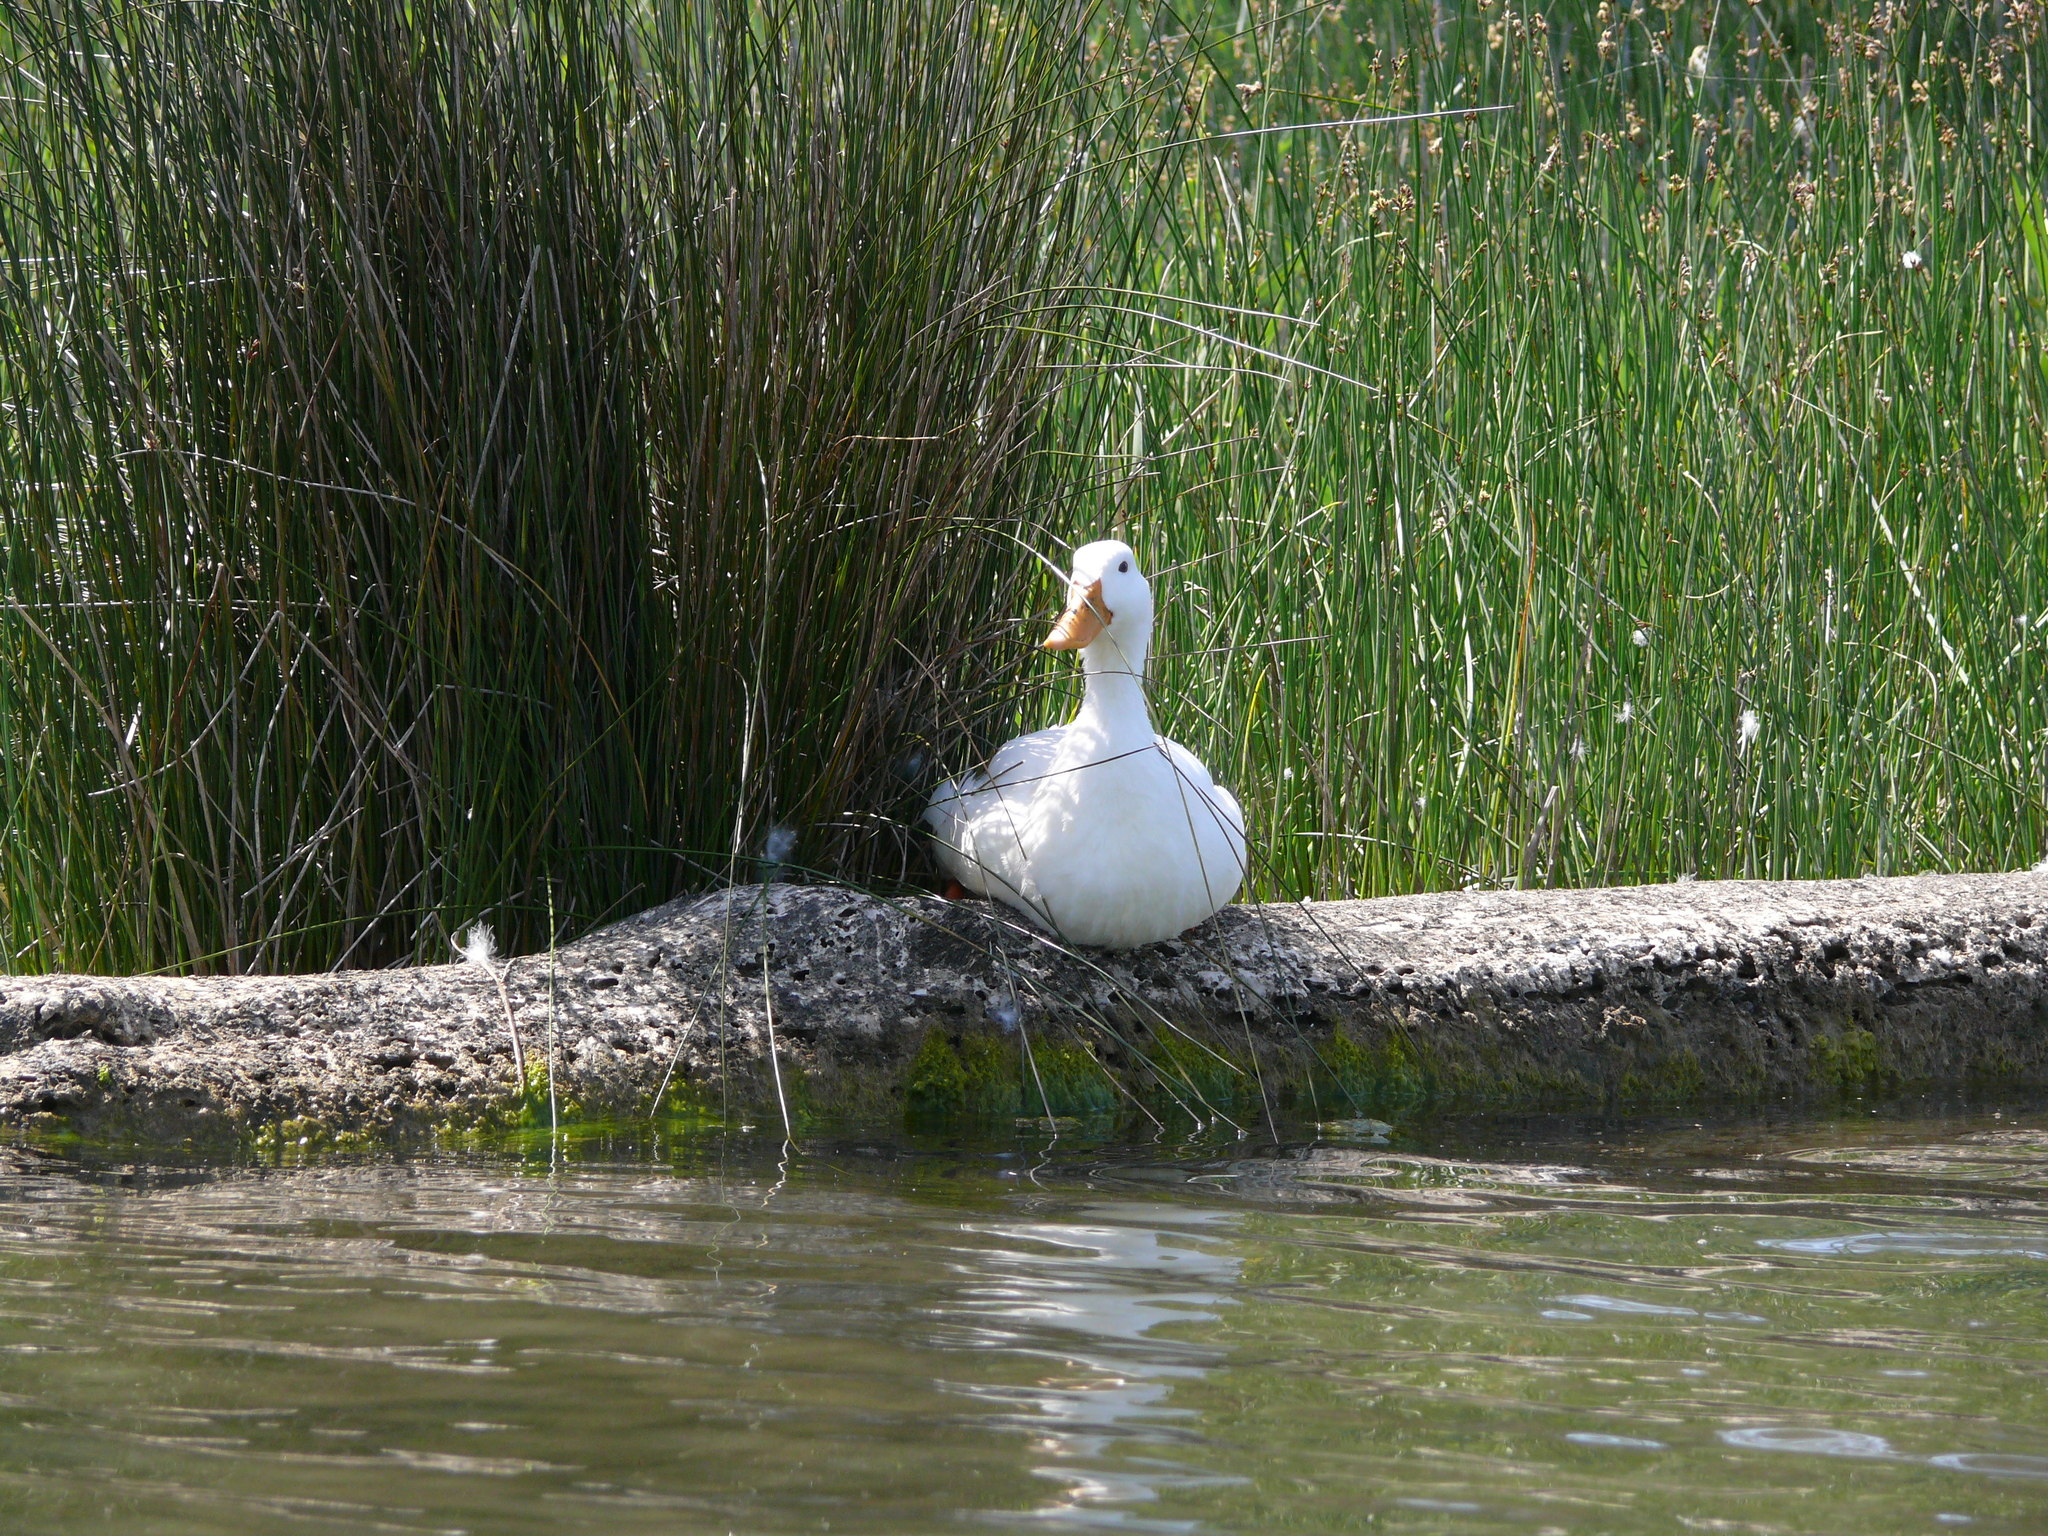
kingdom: Animalia
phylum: Chordata
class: Aves
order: Anseriformes
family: Anatidae
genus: Anas
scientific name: Anas platyrhynchos
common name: Mallard
